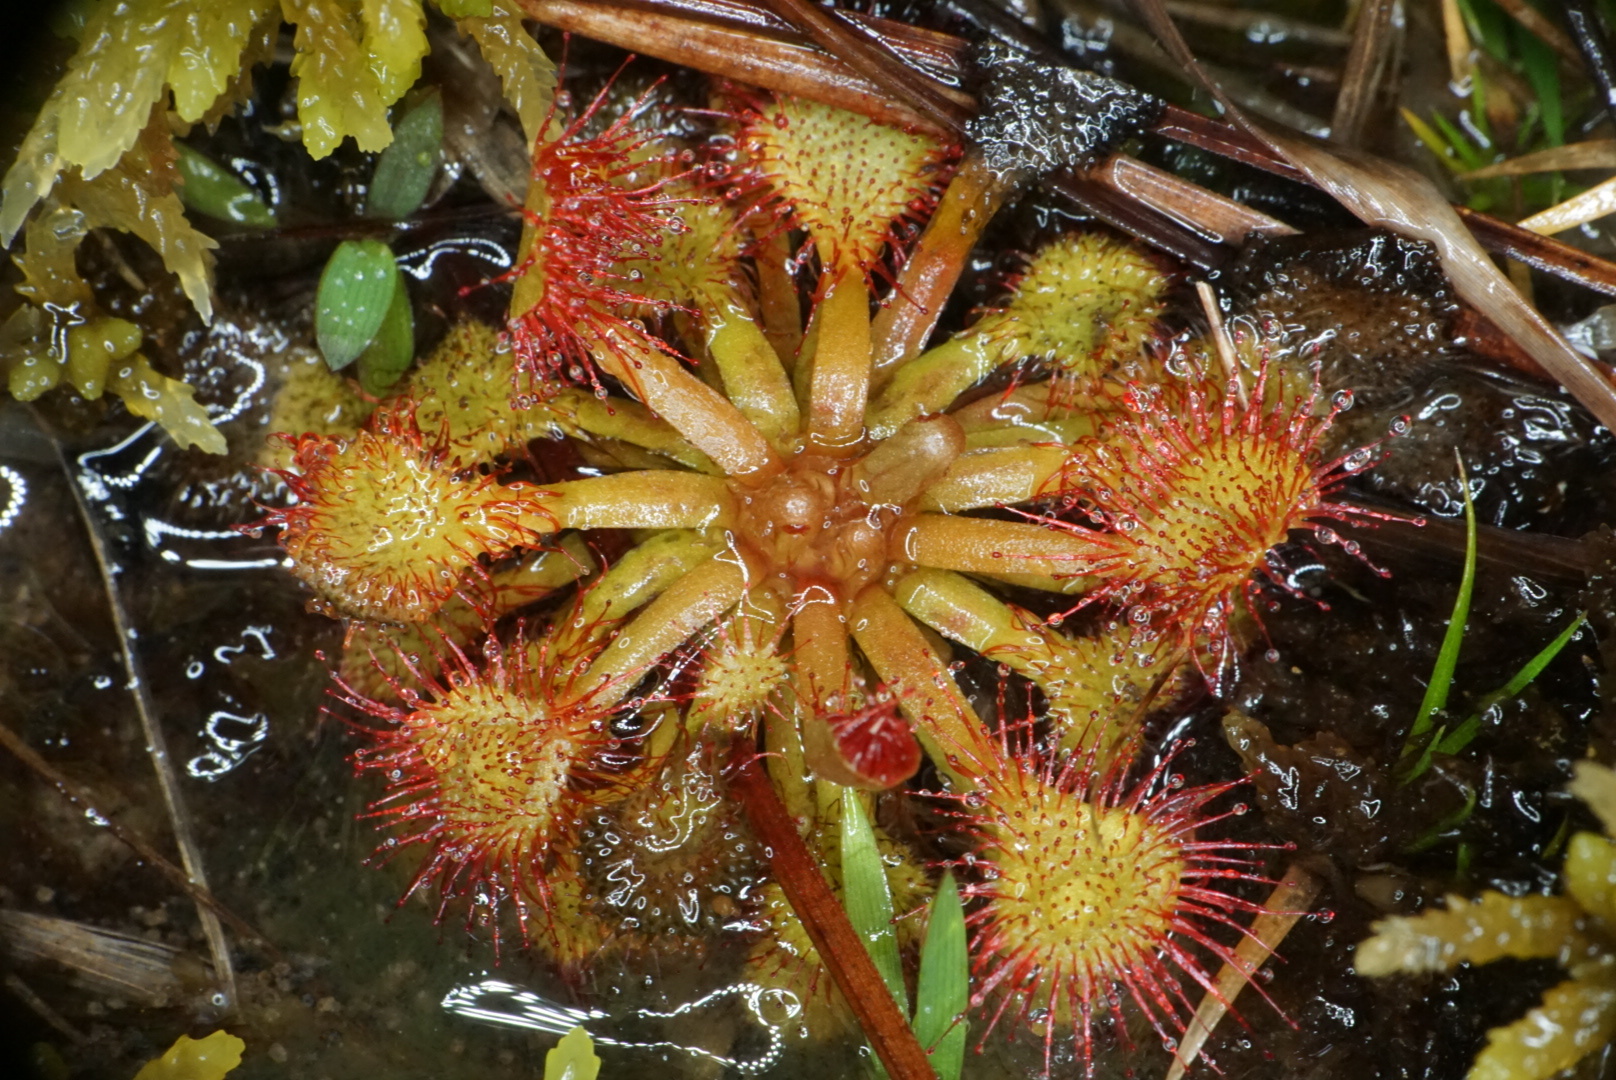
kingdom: Plantae
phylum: Tracheophyta
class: Magnoliopsida
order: Caryophyllales
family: Droseraceae
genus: Drosera
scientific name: Drosera capillaris
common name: Pink sundew
